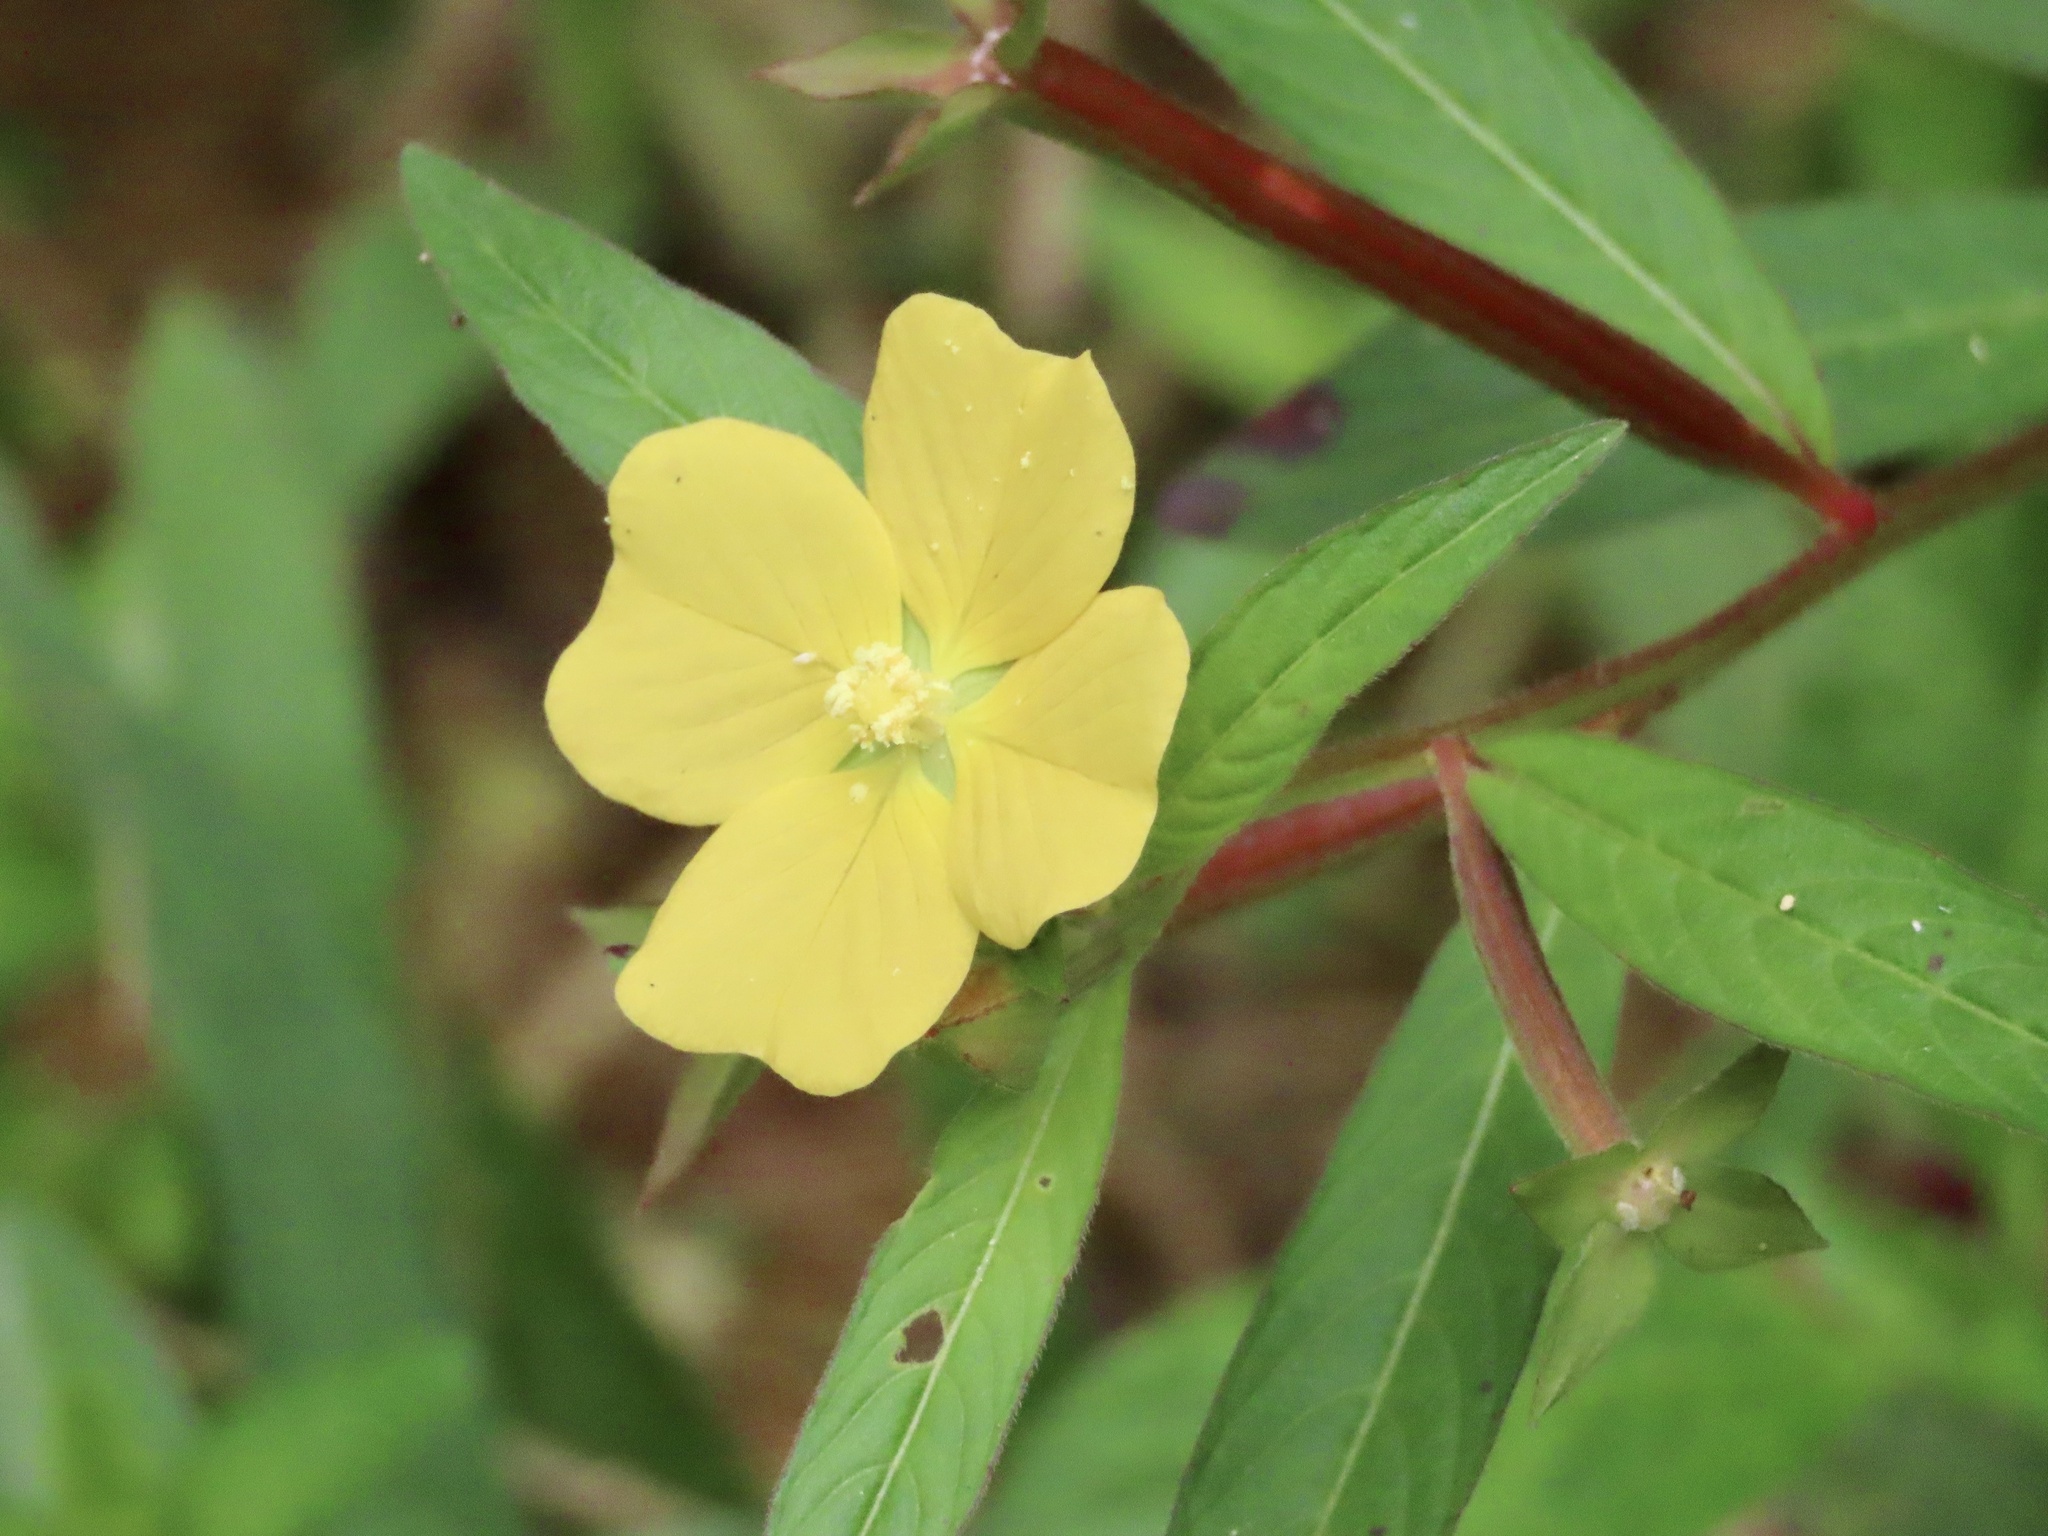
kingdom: Plantae
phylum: Tracheophyta
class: Magnoliopsida
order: Myrtales
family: Onagraceae
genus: Ludwigia
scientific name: Ludwigia octovalvis
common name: Water-primrose
